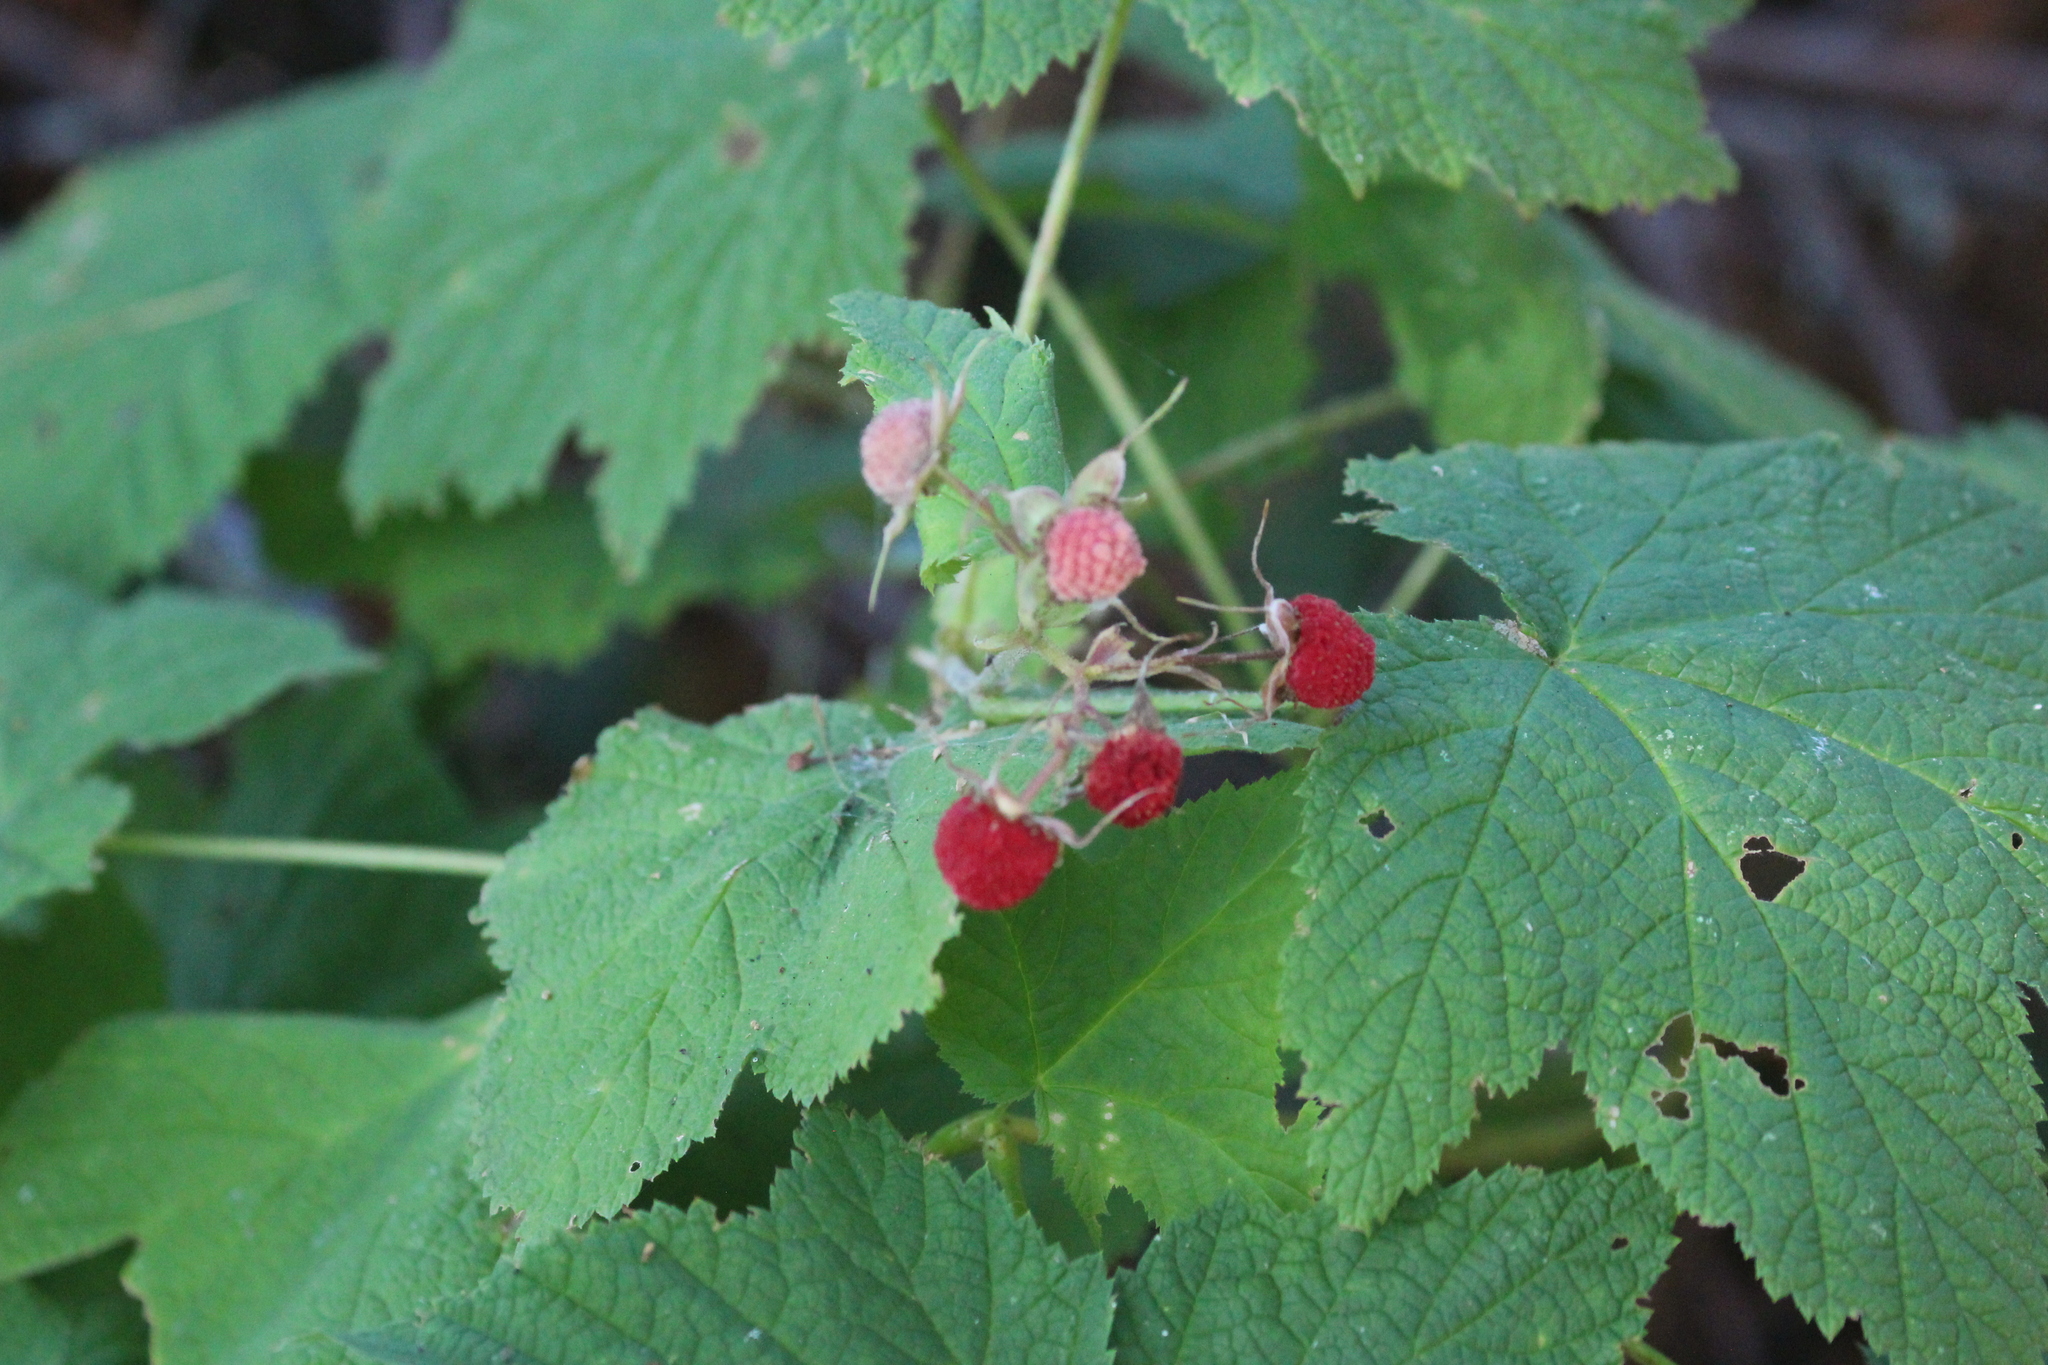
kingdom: Plantae
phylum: Tracheophyta
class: Magnoliopsida
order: Rosales
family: Rosaceae
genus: Rubus
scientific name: Rubus parviflorus
